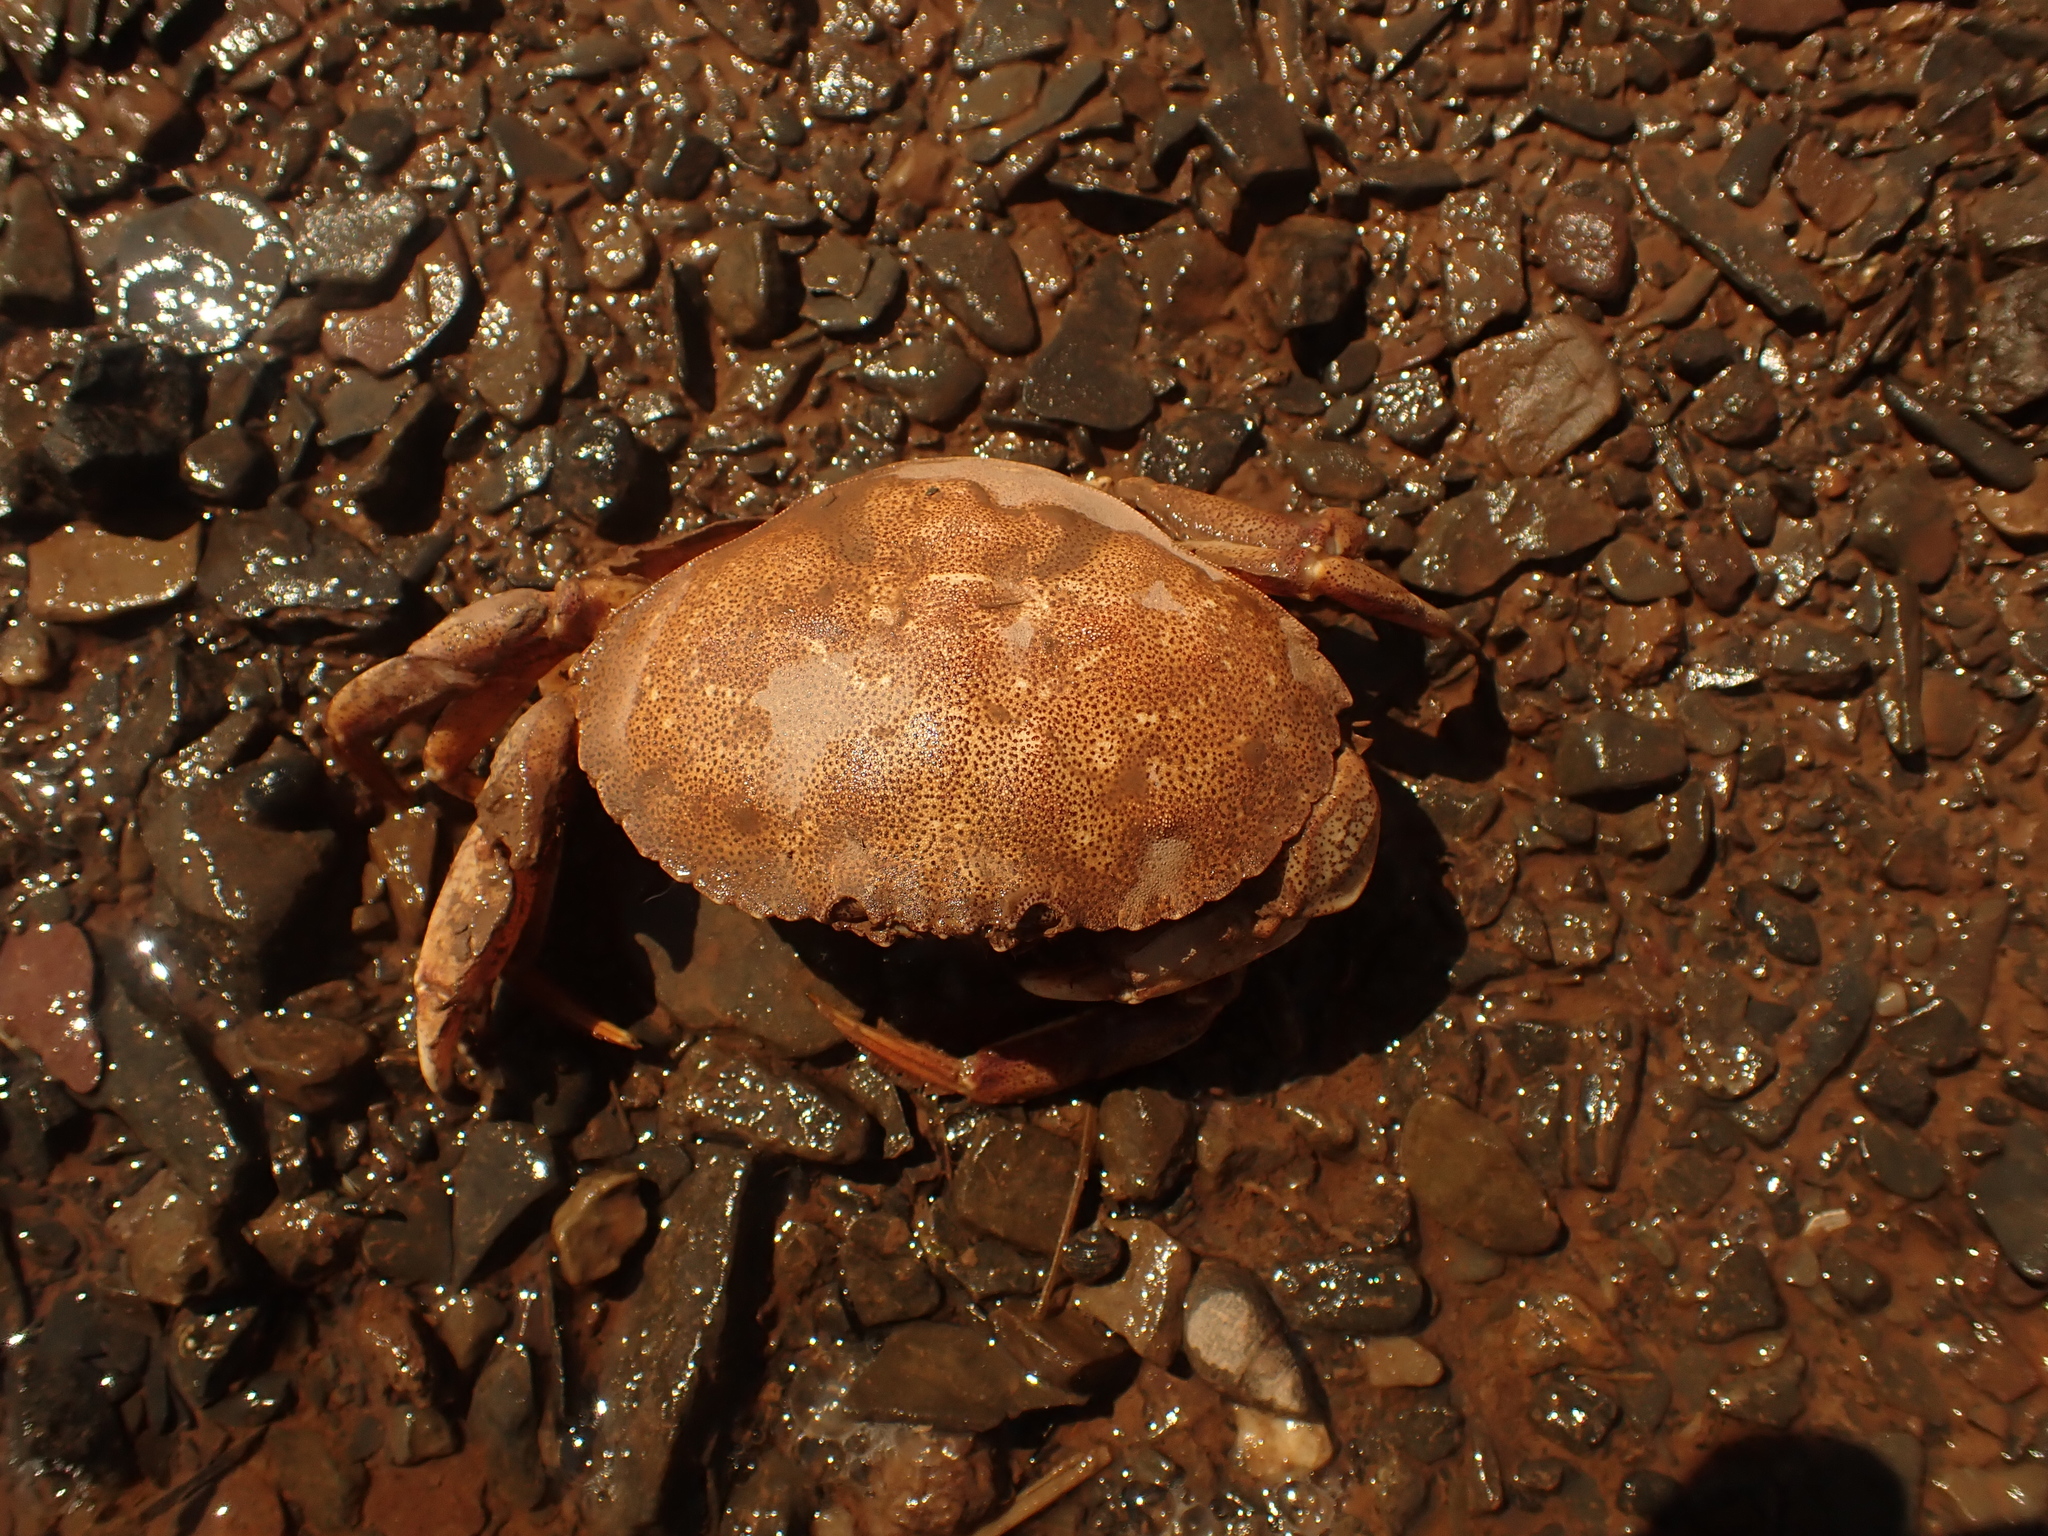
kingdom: Animalia
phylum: Arthropoda
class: Malacostraca
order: Decapoda
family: Cancridae
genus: Cancer
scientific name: Cancer irroratus
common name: Atlantic rock crab
